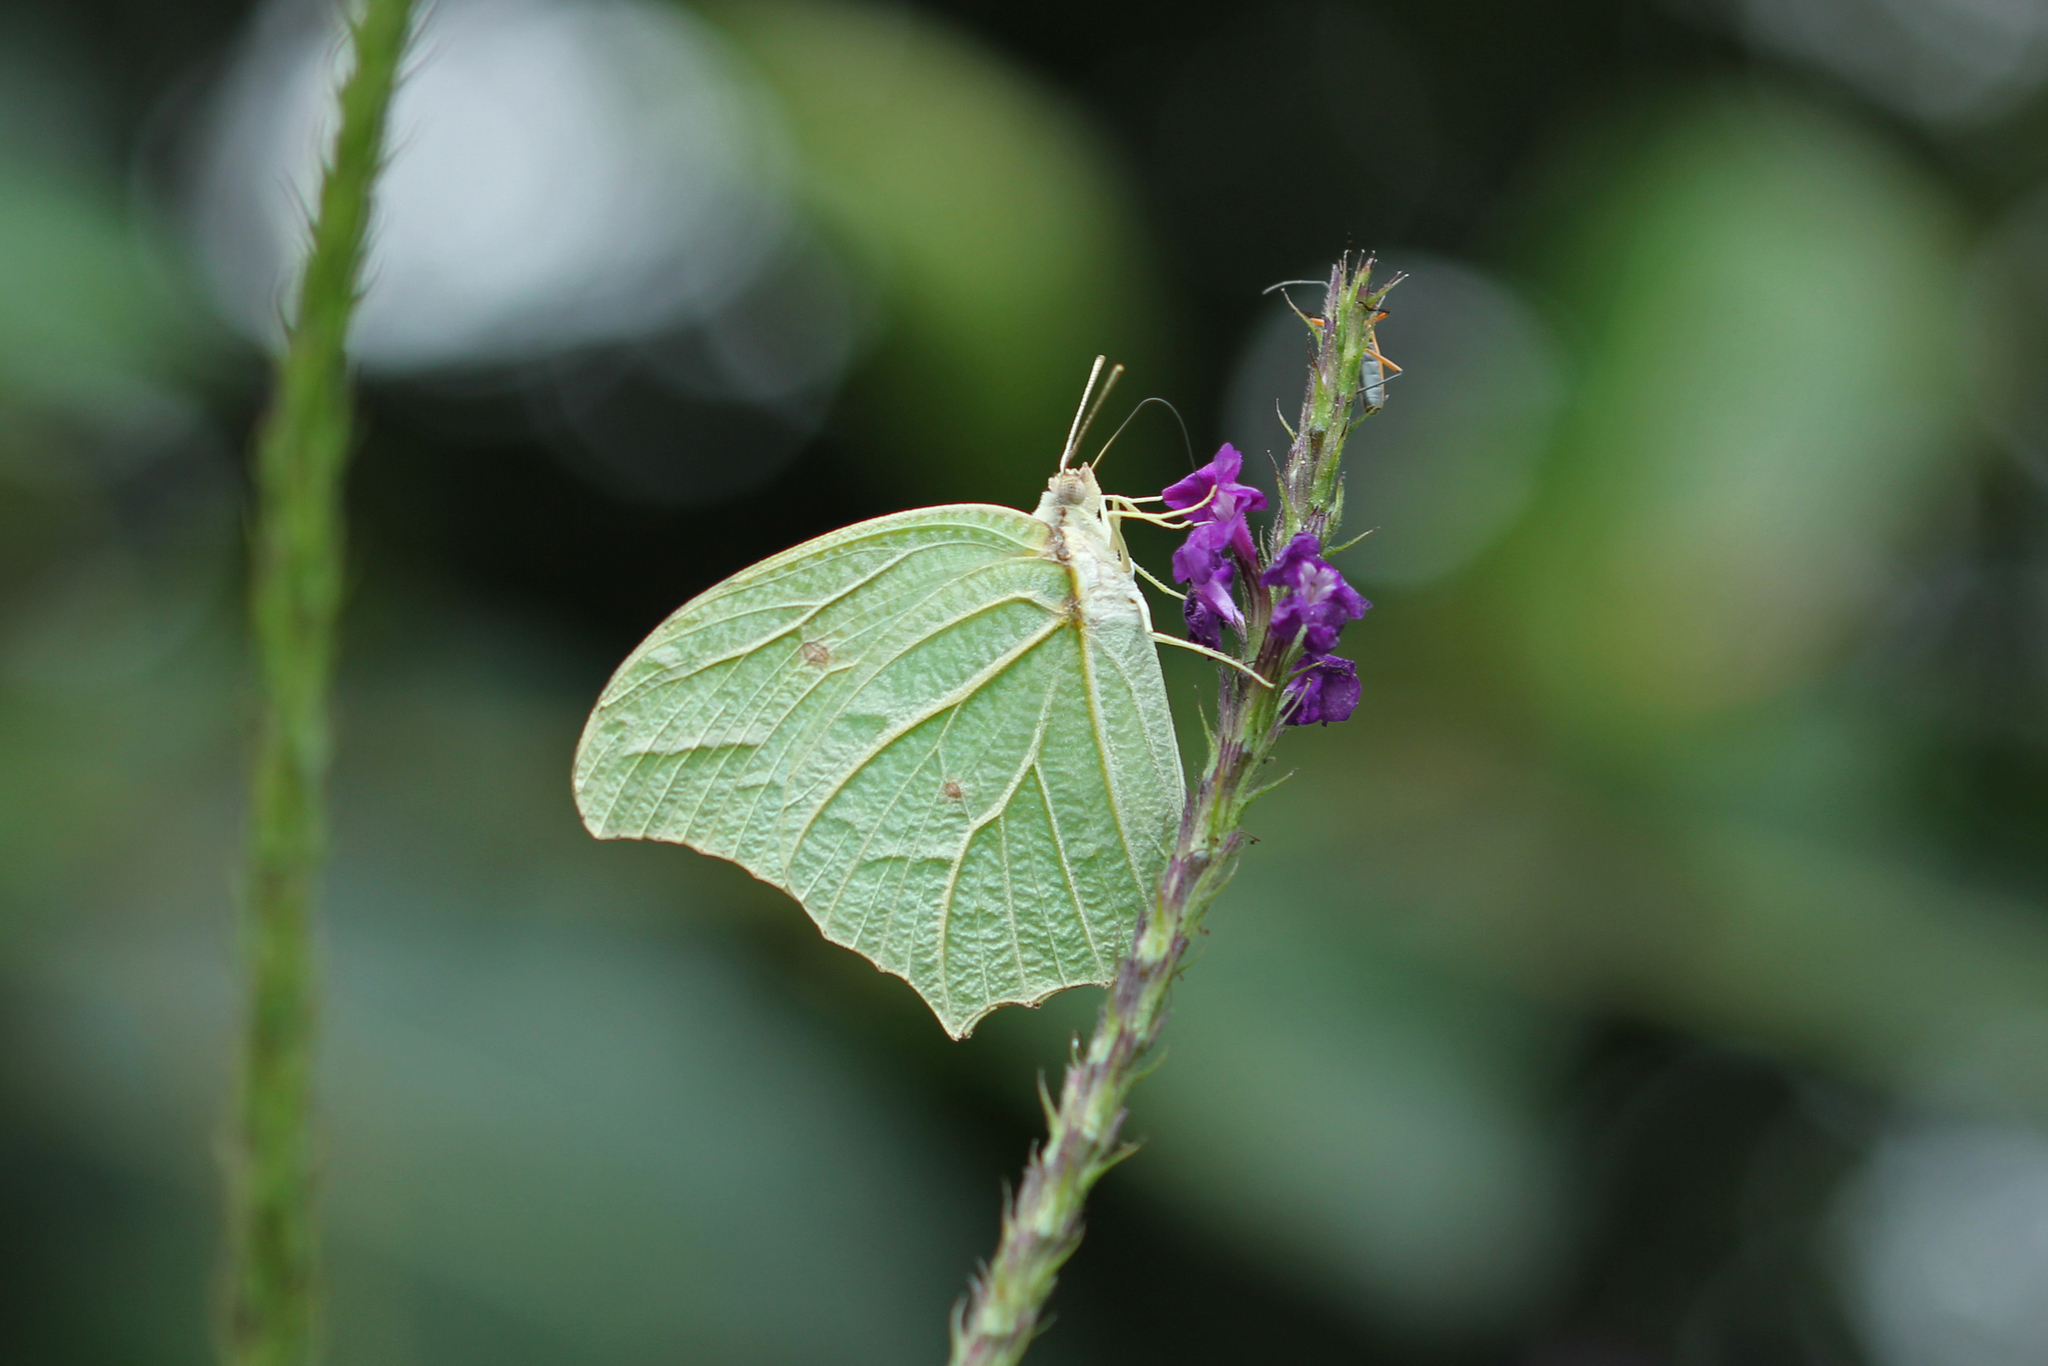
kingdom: Animalia
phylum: Arthropoda
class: Insecta
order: Lepidoptera
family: Pieridae
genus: Anteos
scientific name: Anteos clorinde
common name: White angled sulphur
